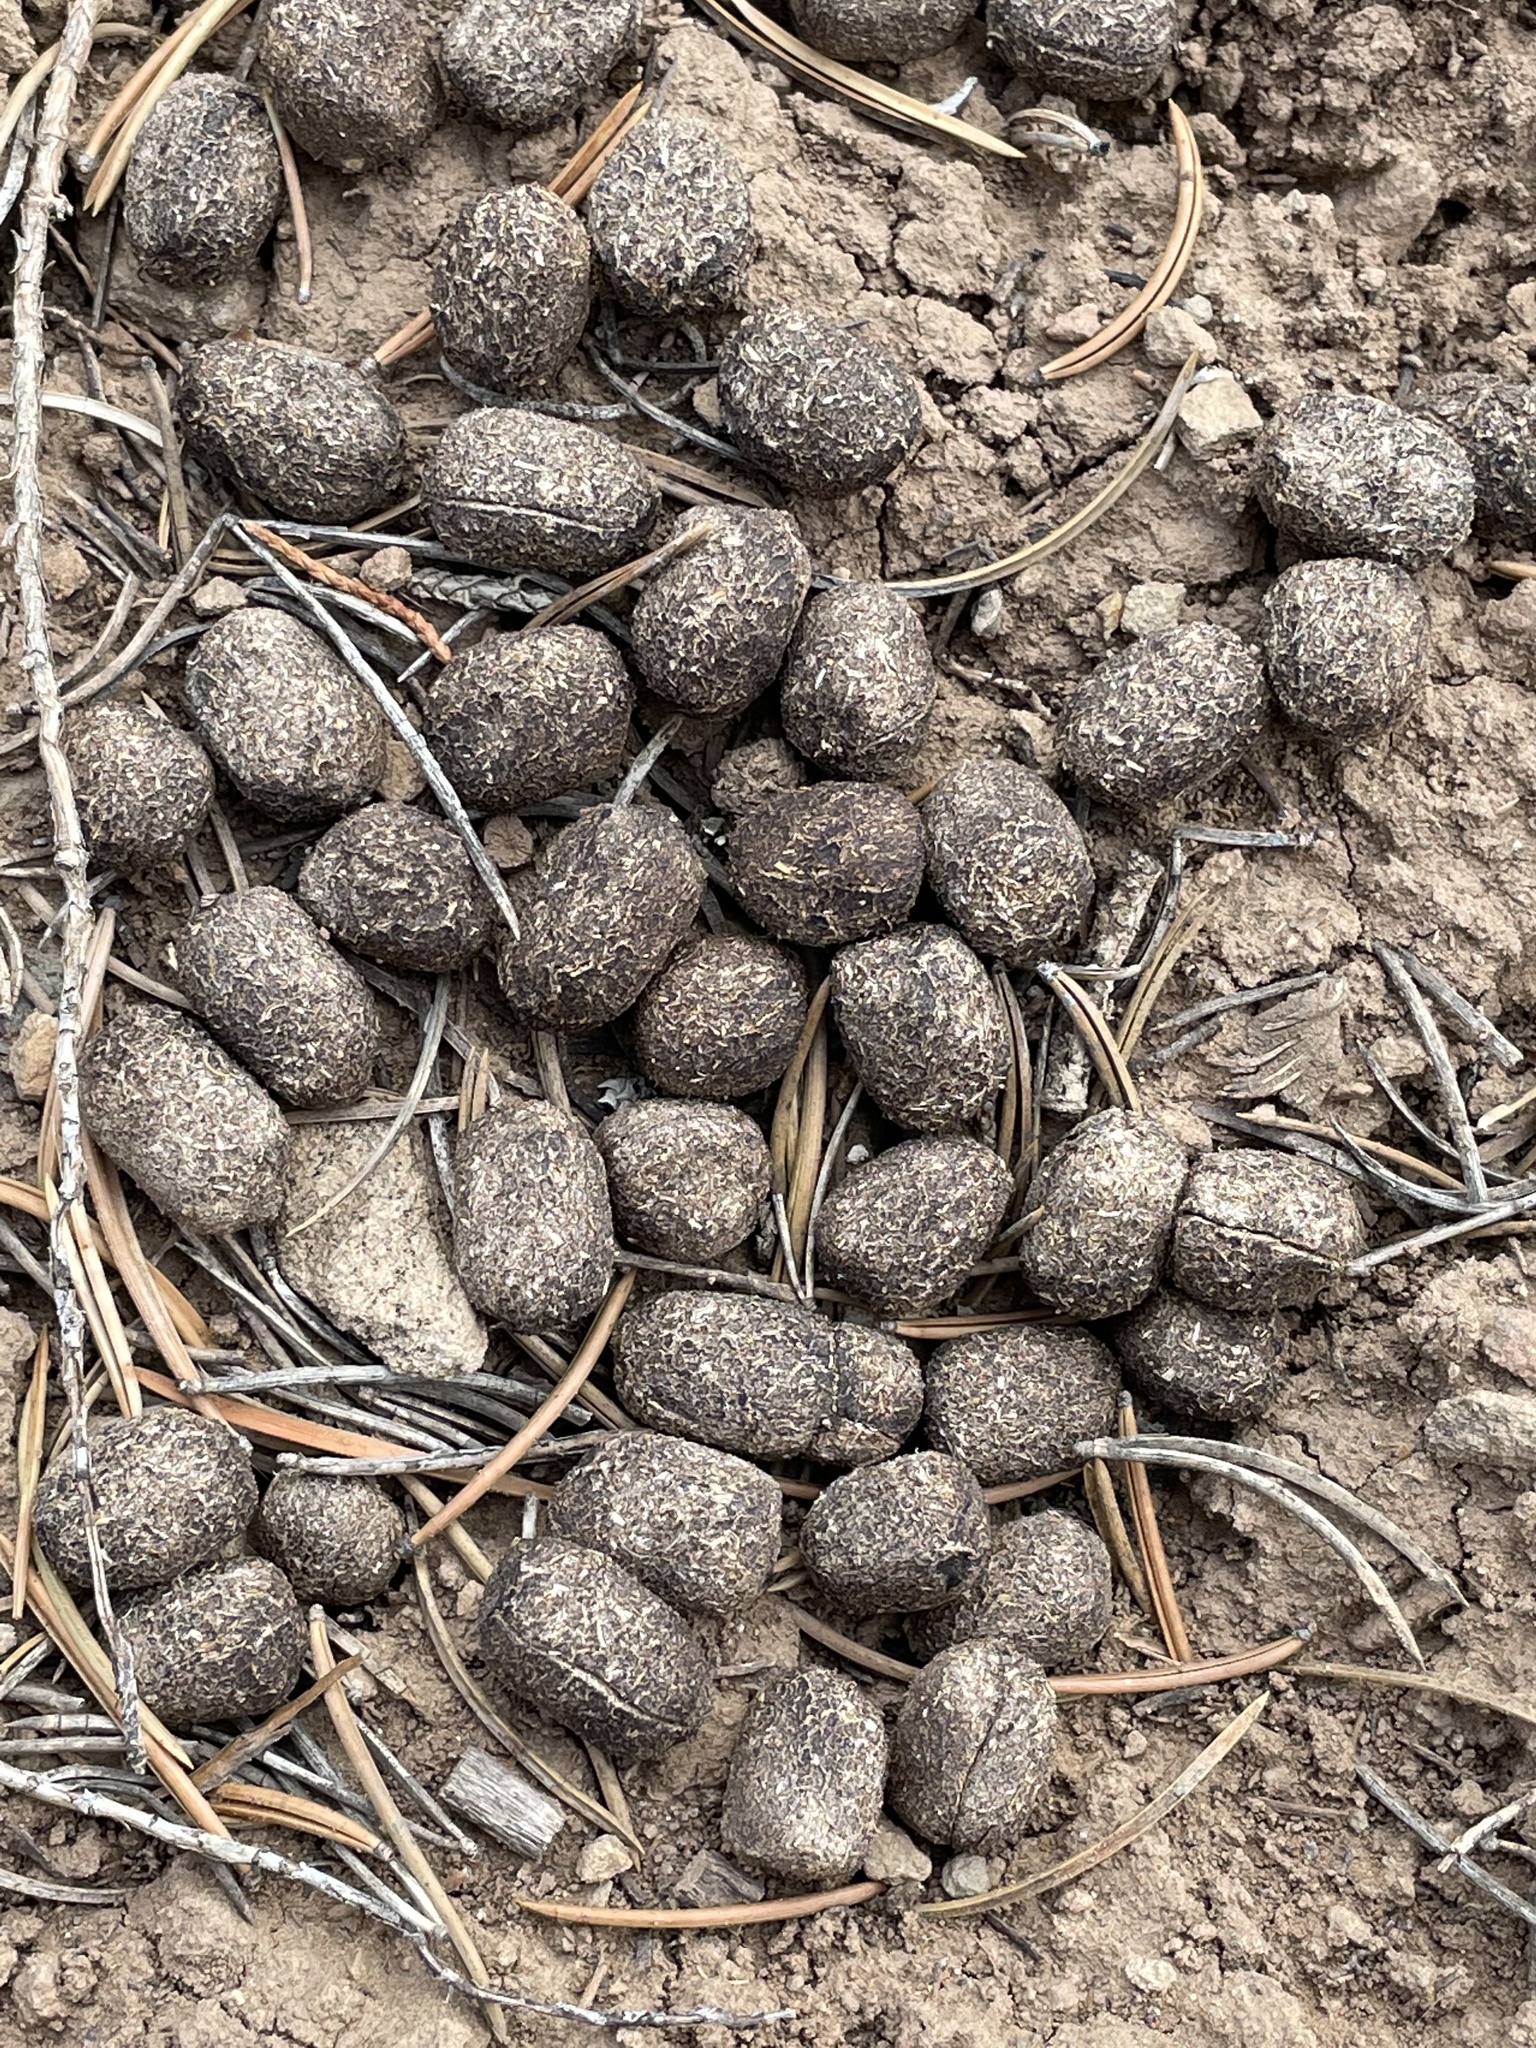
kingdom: Animalia
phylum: Chordata
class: Mammalia
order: Artiodactyla
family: Cervidae
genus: Odocoileus
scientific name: Odocoileus hemionus
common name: Mule deer
